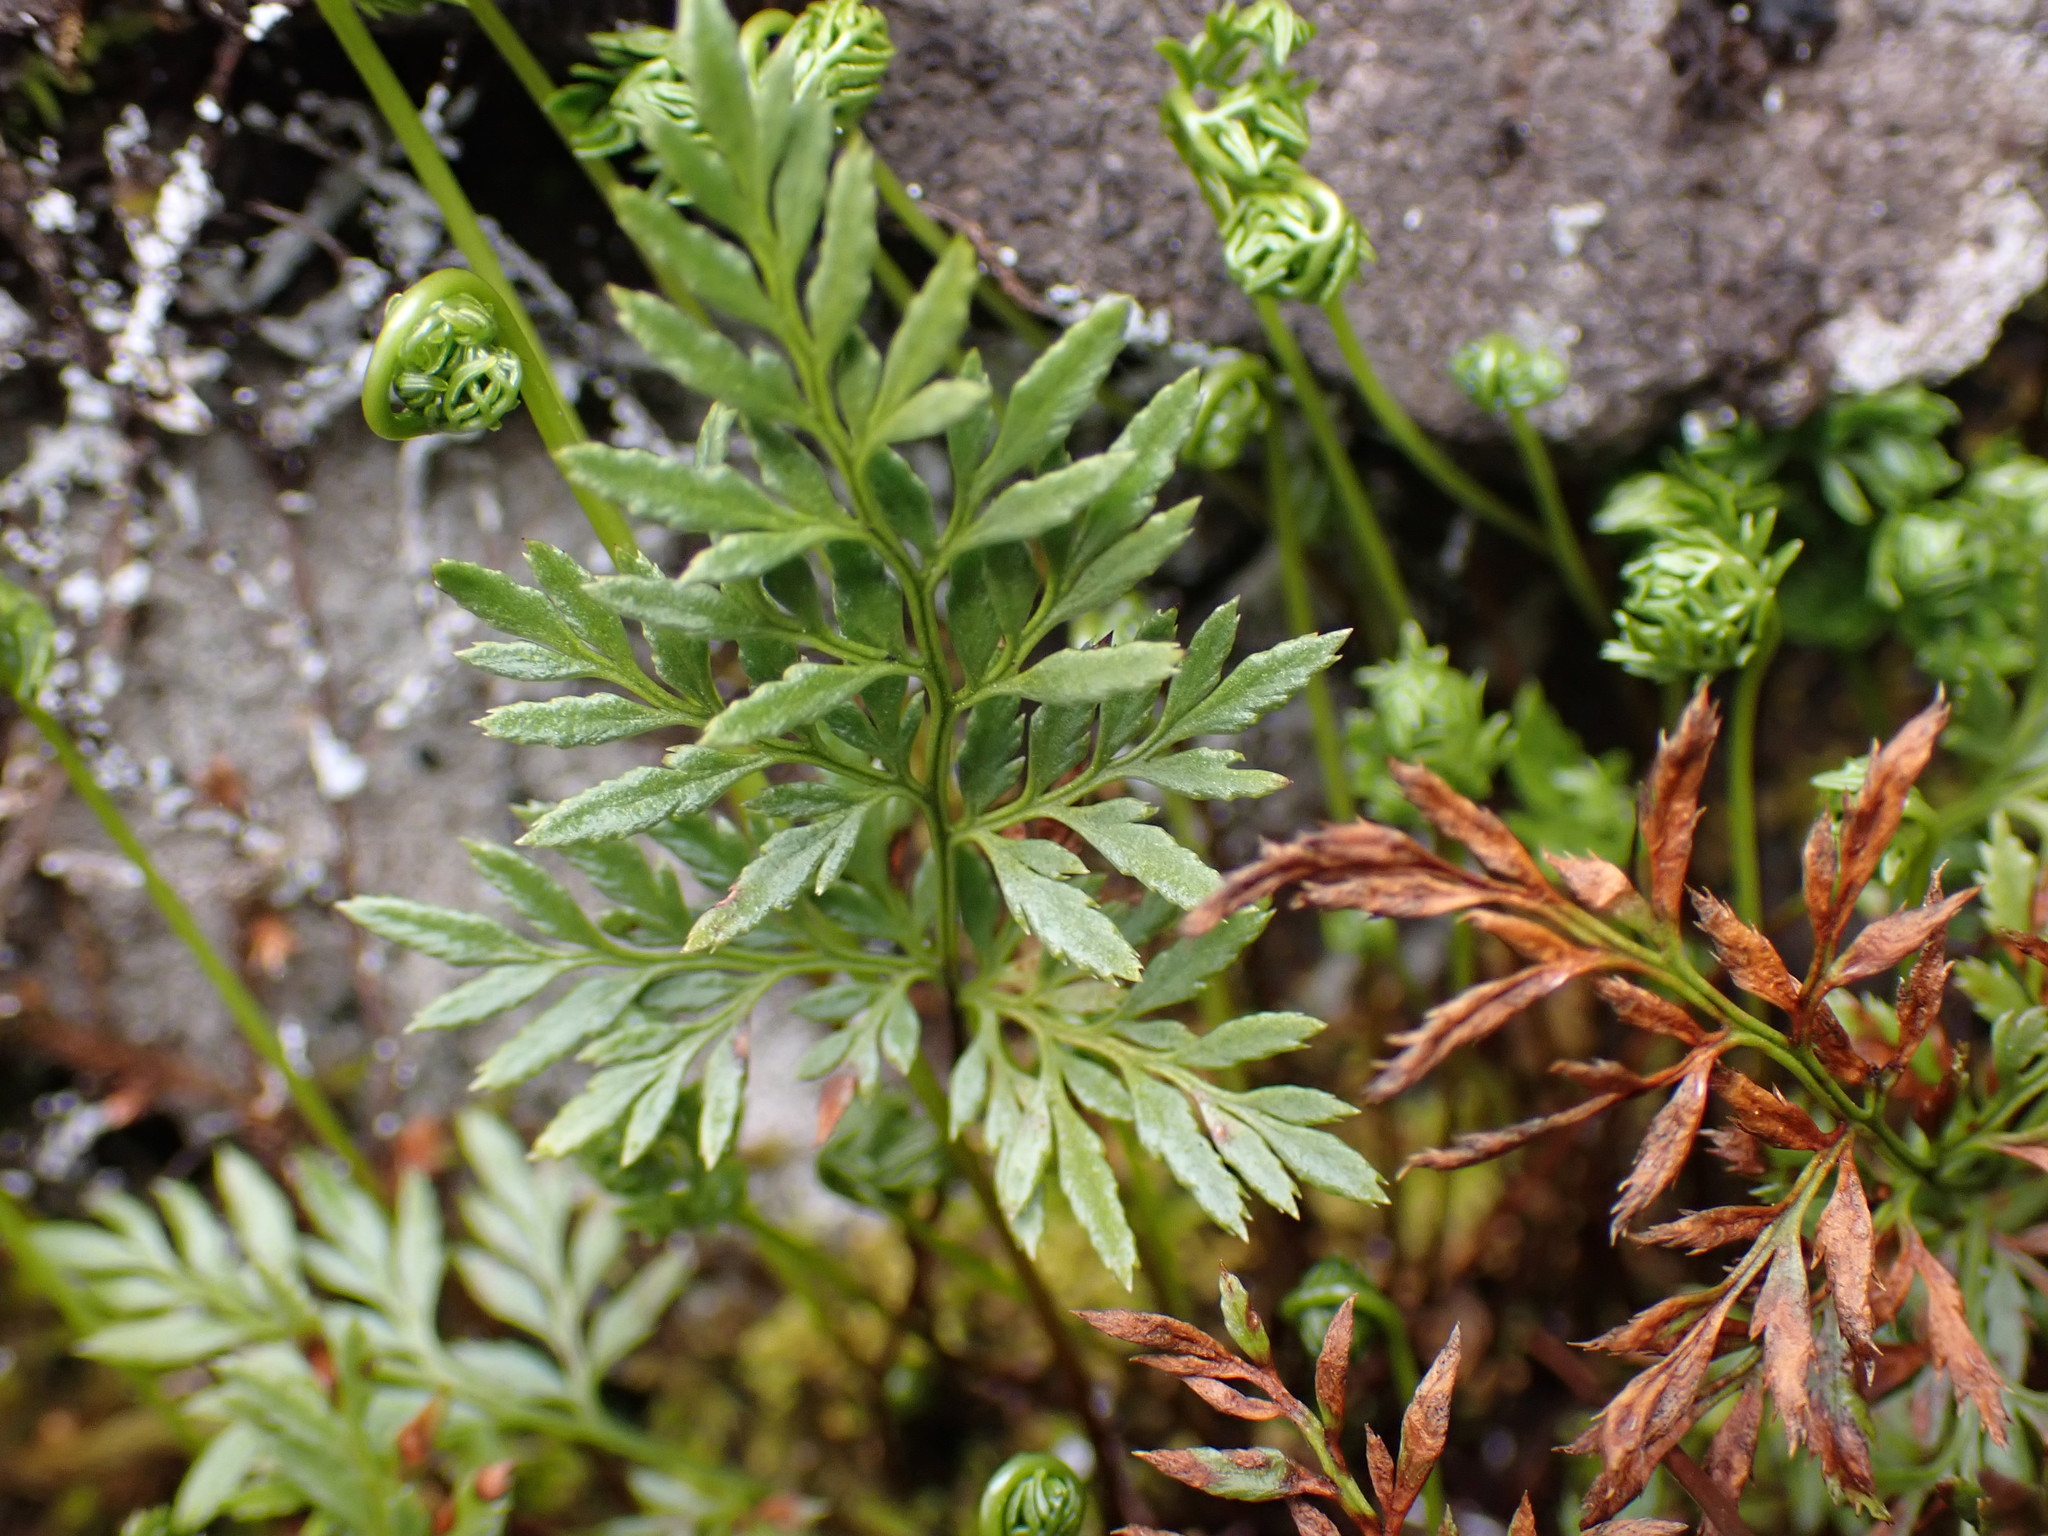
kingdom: Plantae
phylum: Tracheophyta
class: Polypodiopsida
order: Polypodiales
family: Pteridaceae
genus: Aspidotis
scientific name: Aspidotis densa
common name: Indian's dream
